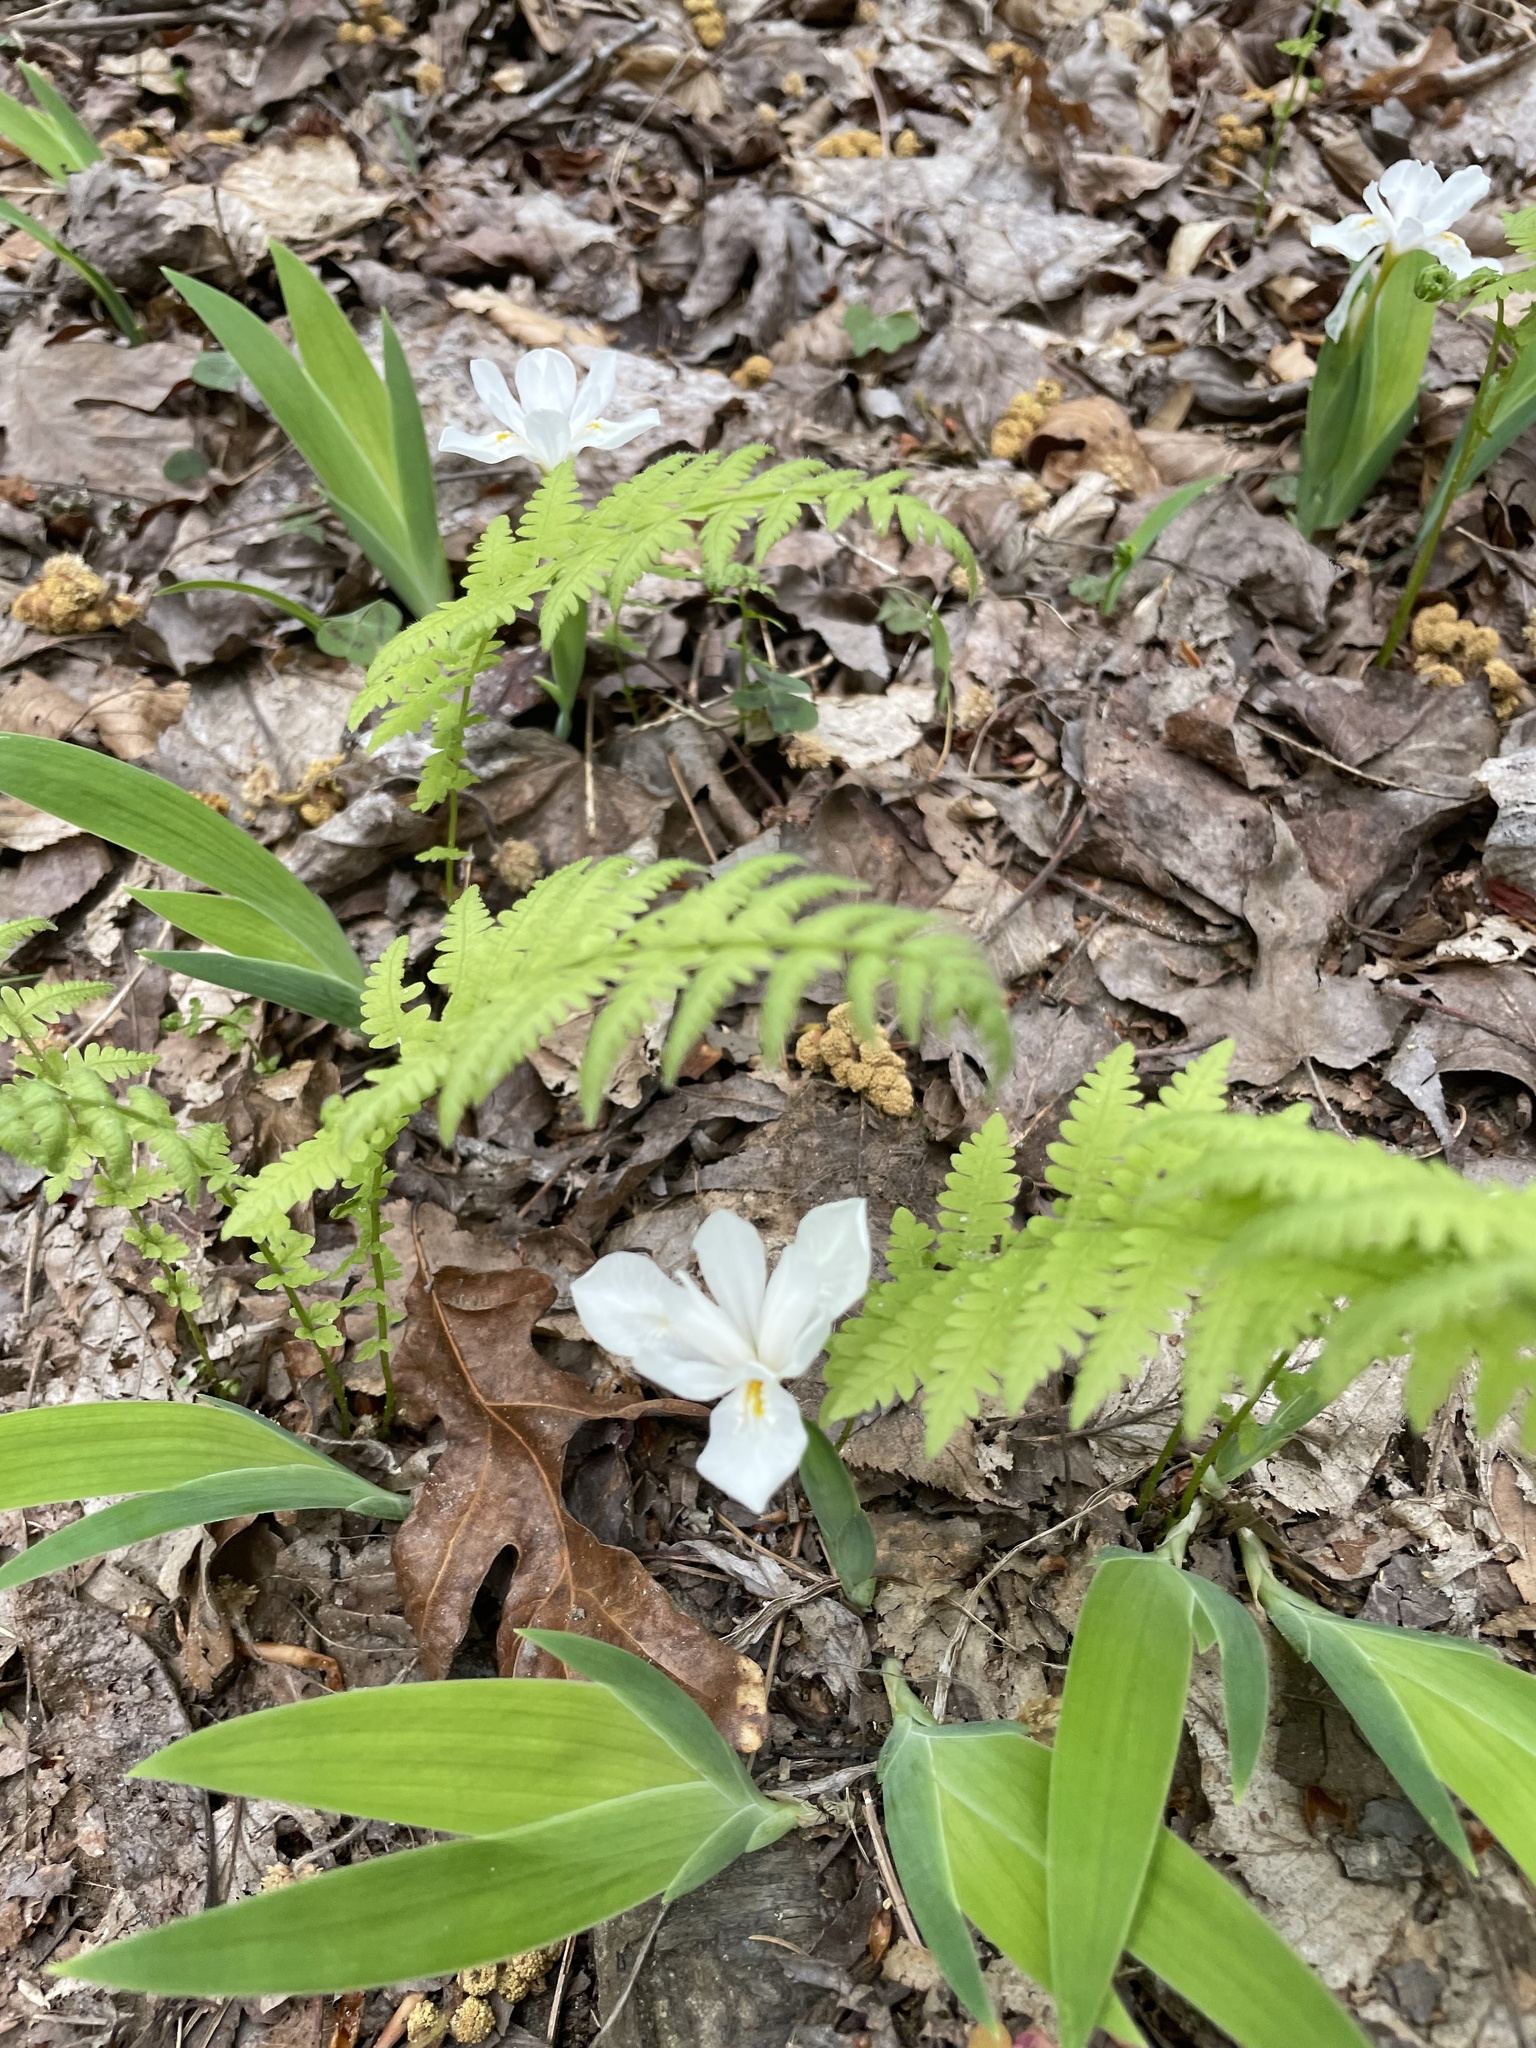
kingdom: Plantae
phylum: Tracheophyta
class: Liliopsida
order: Asparagales
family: Iridaceae
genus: Iris
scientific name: Iris cristata
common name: Crested iris
